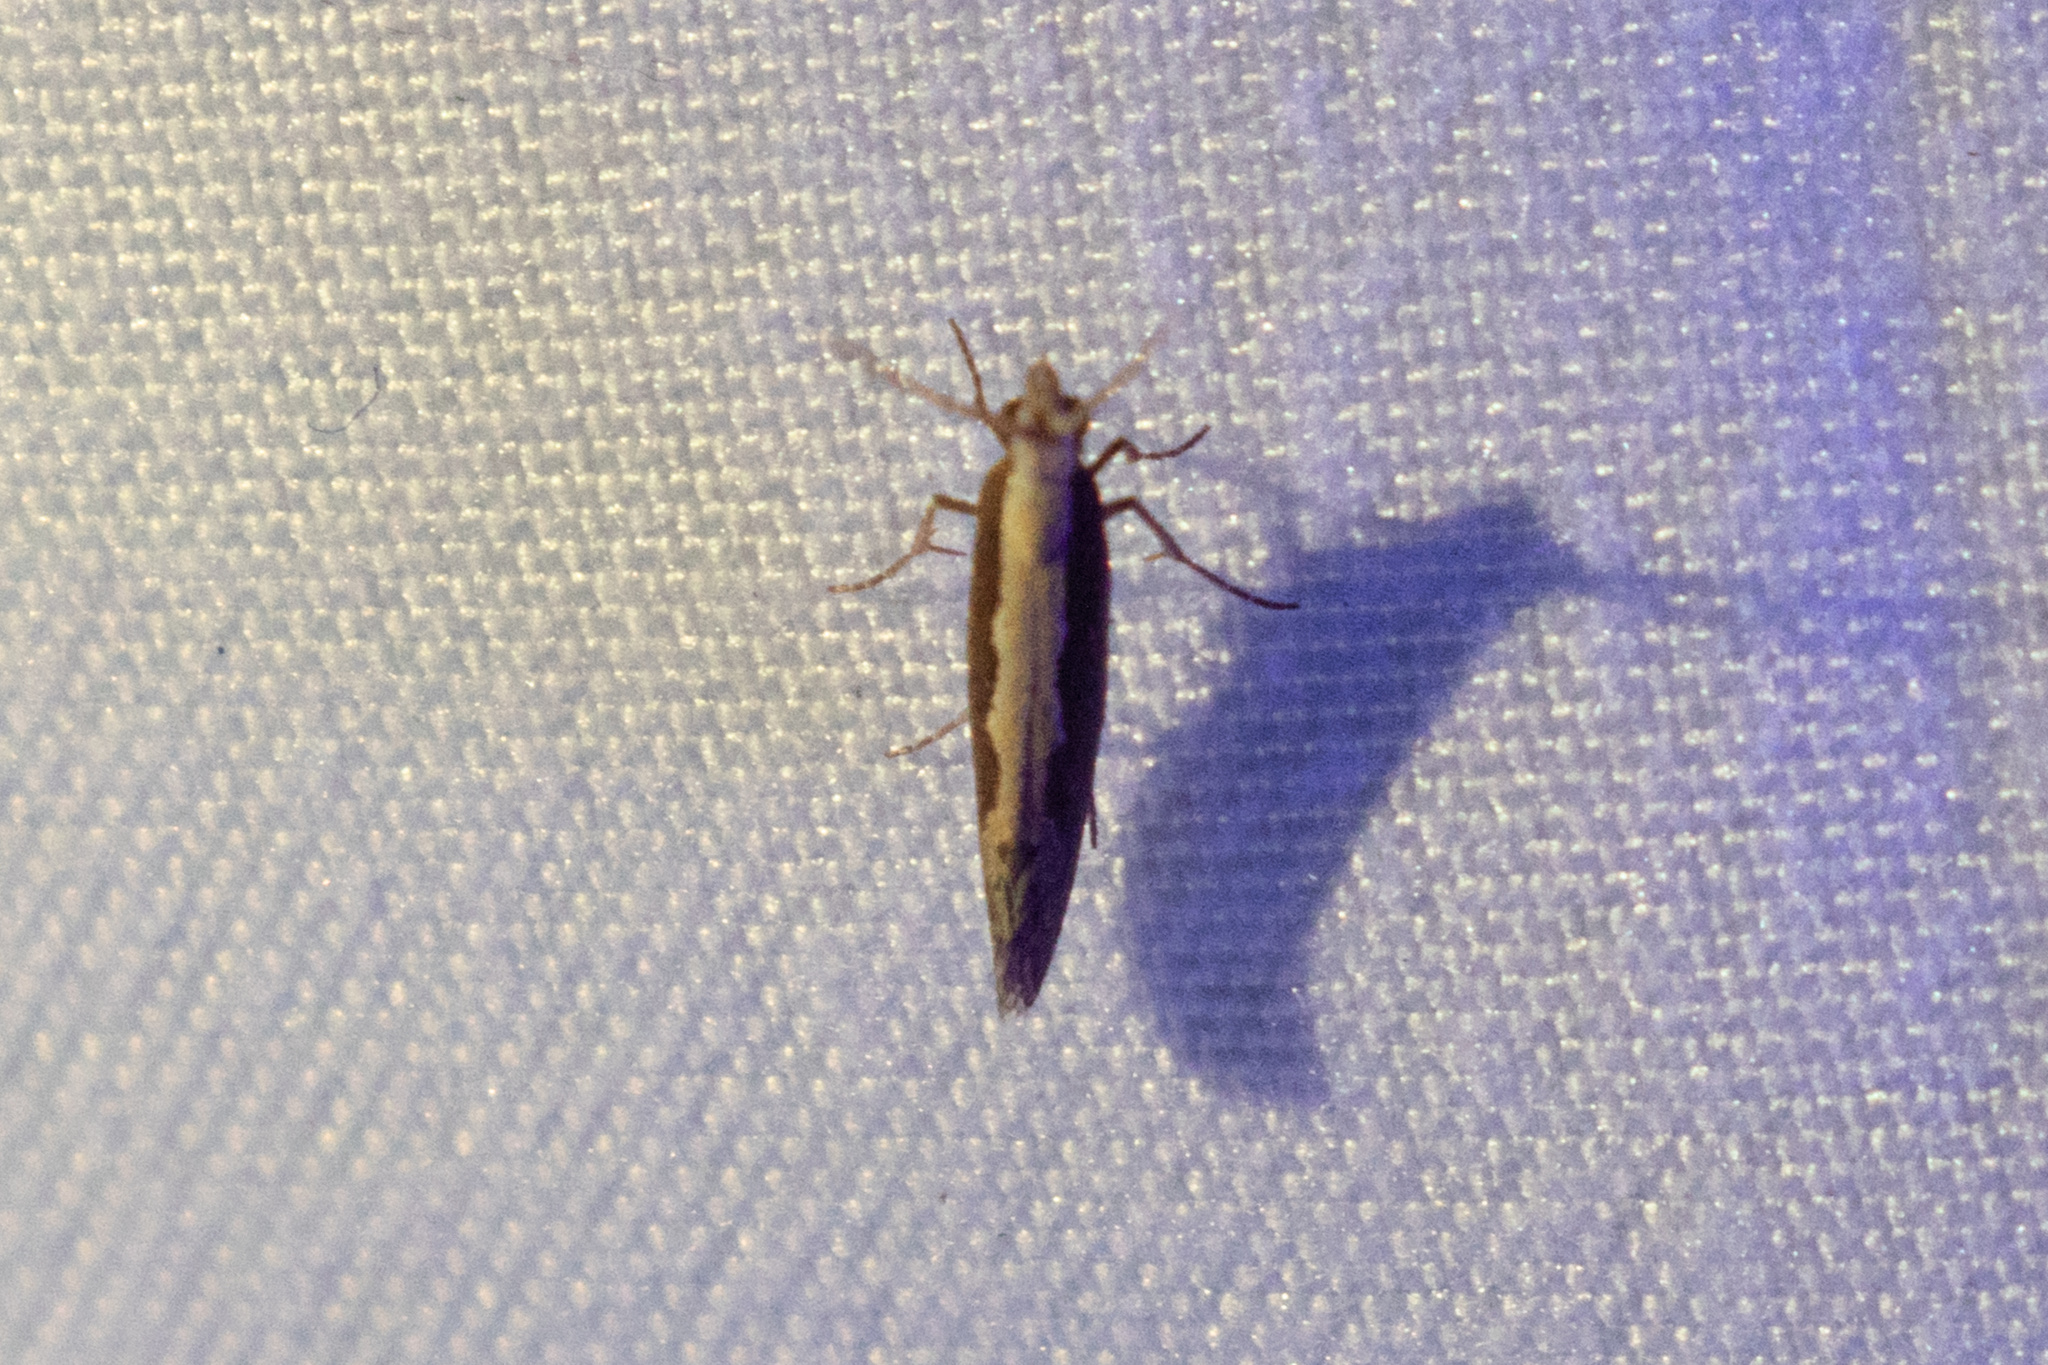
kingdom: Animalia
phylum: Arthropoda
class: Insecta
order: Lepidoptera
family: Plutellidae
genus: Plutella
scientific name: Plutella xylostella
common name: Diamond-back moth
